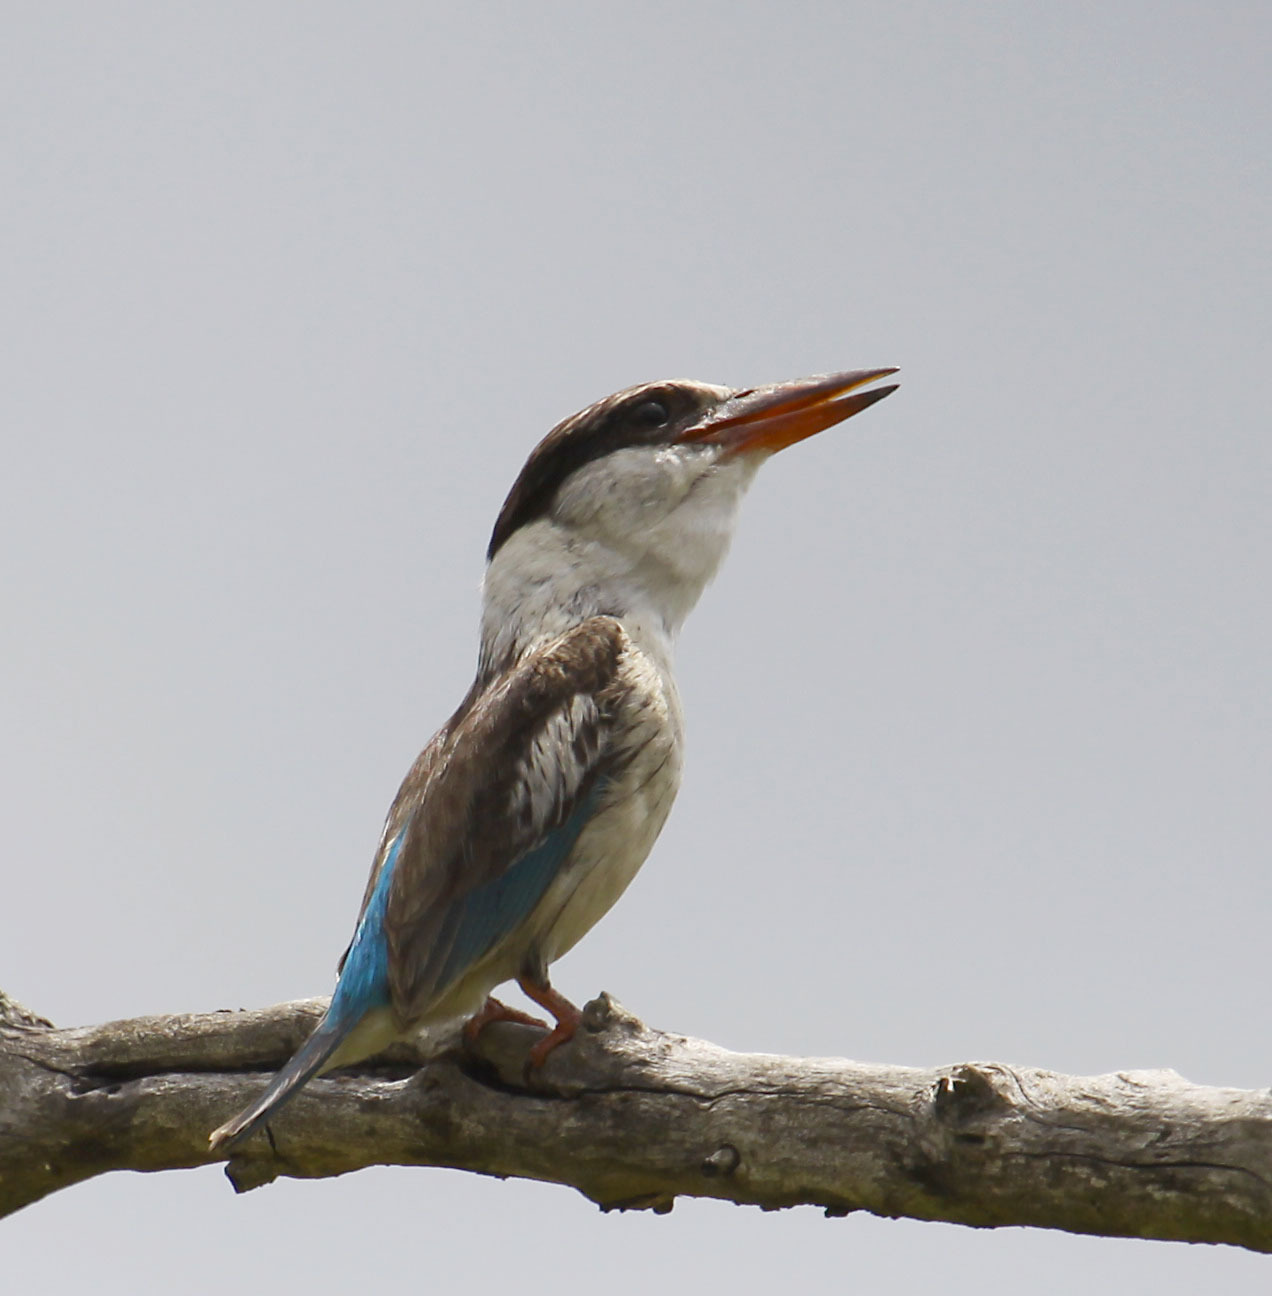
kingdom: Animalia
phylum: Chordata
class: Aves
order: Coraciiformes
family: Alcedinidae
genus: Halcyon
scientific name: Halcyon chelicuti
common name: Striped kingfisher
